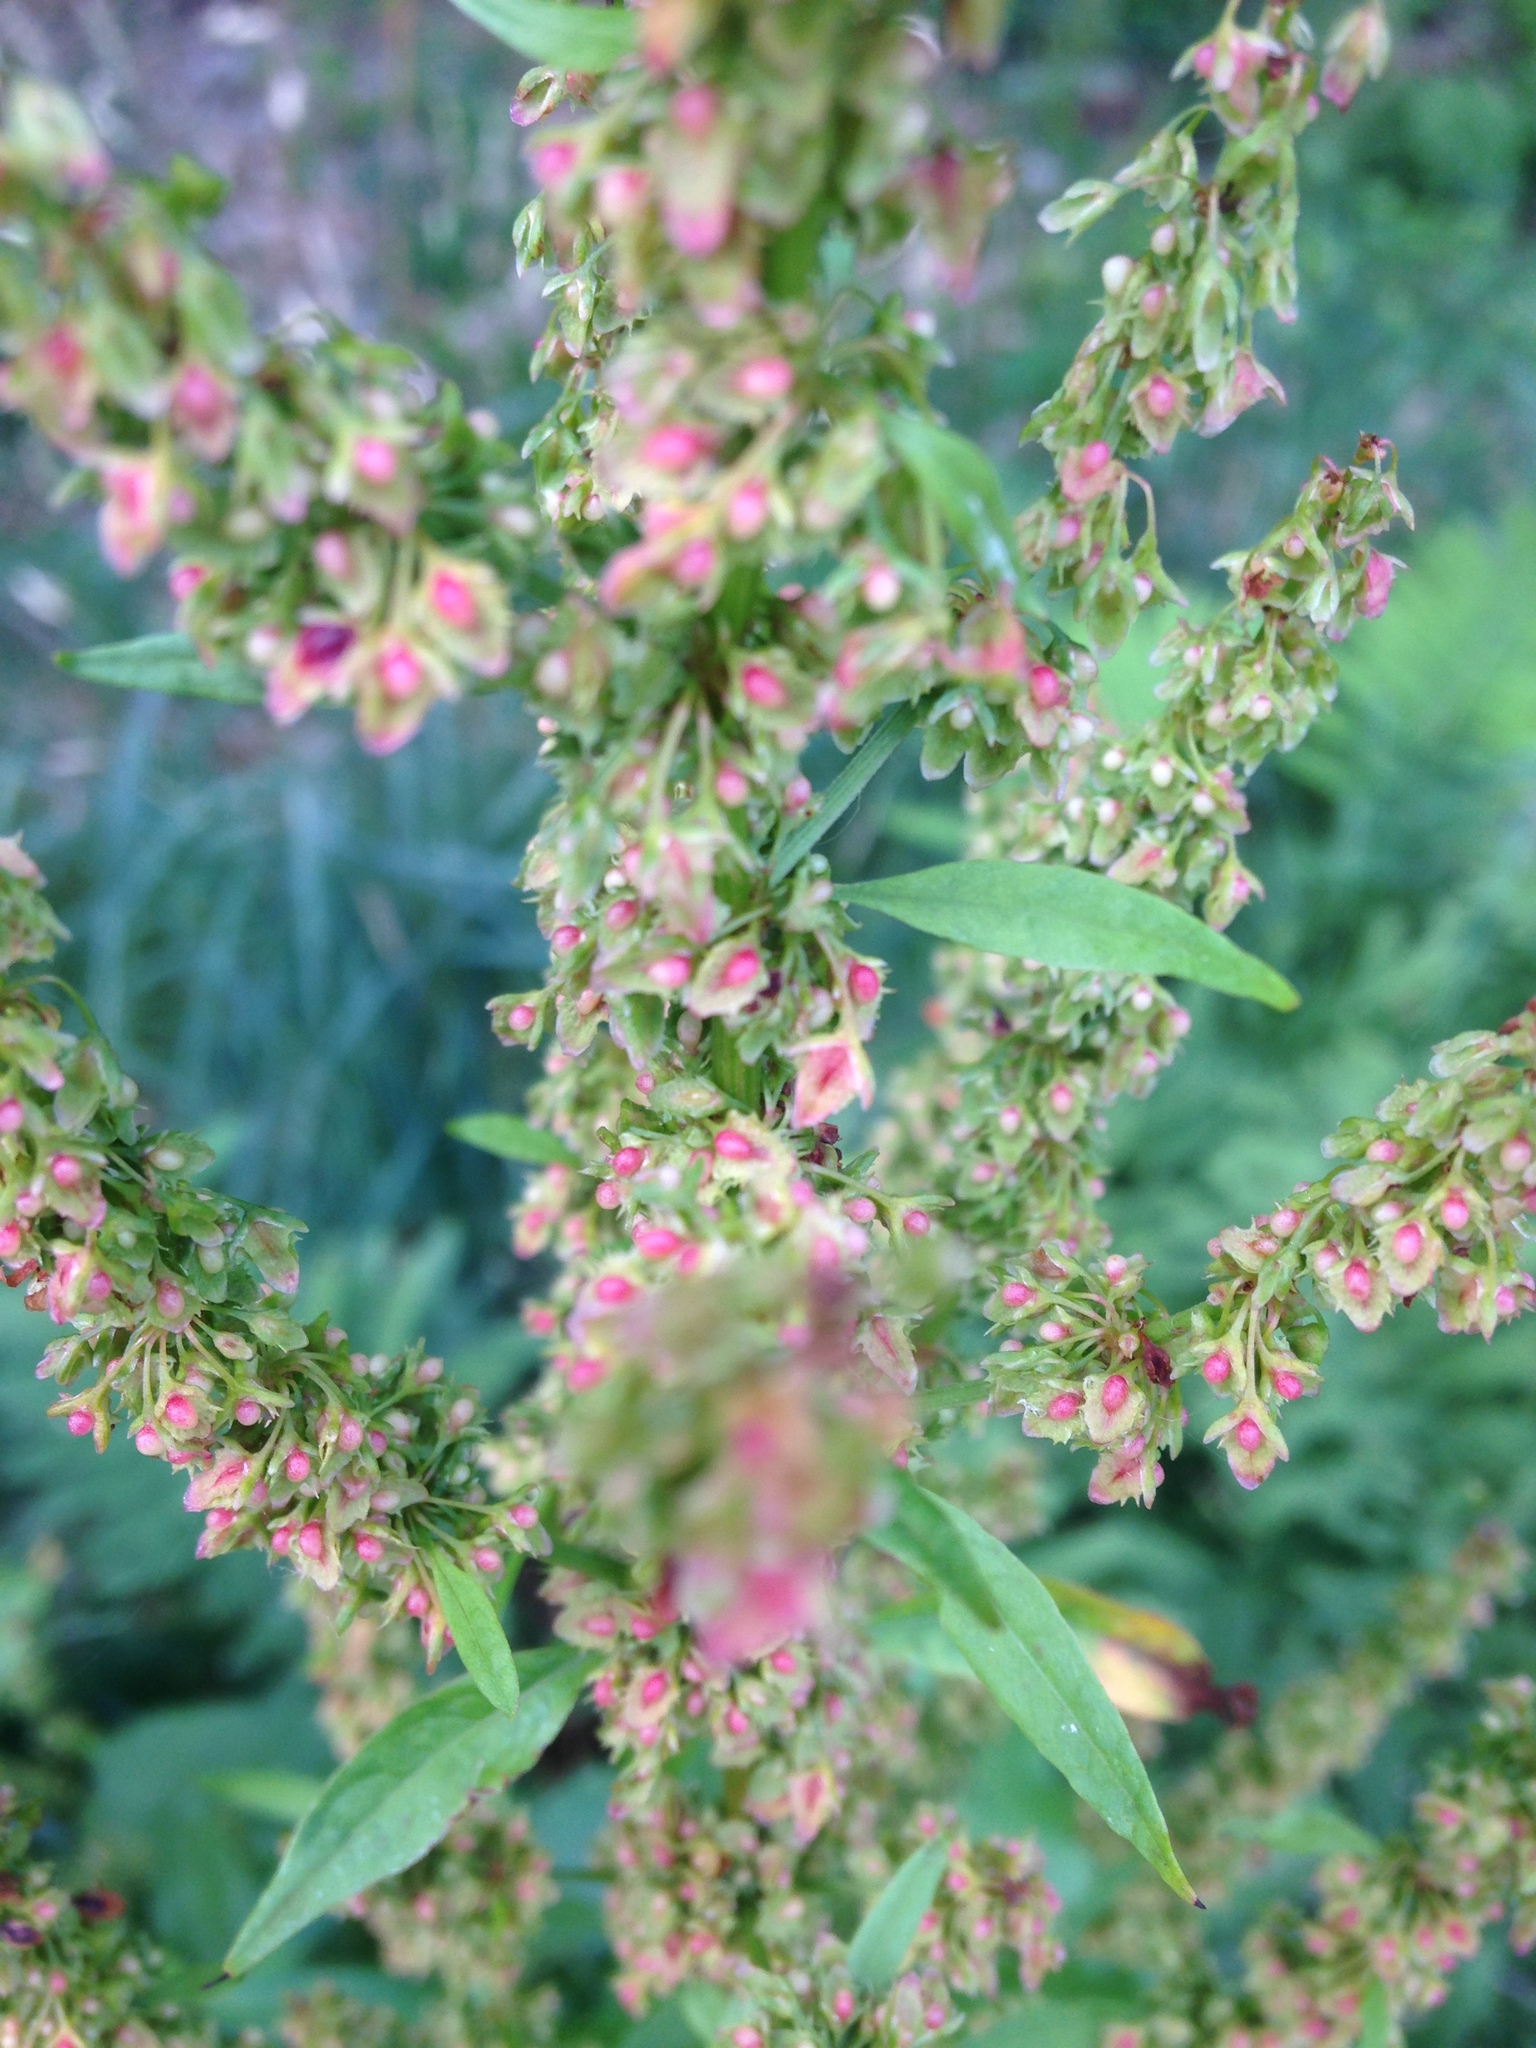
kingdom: Plantae
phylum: Tracheophyta
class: Magnoliopsida
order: Caryophyllales
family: Polygonaceae
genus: Rumex
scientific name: Rumex obtusifolius
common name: Bitter dock
